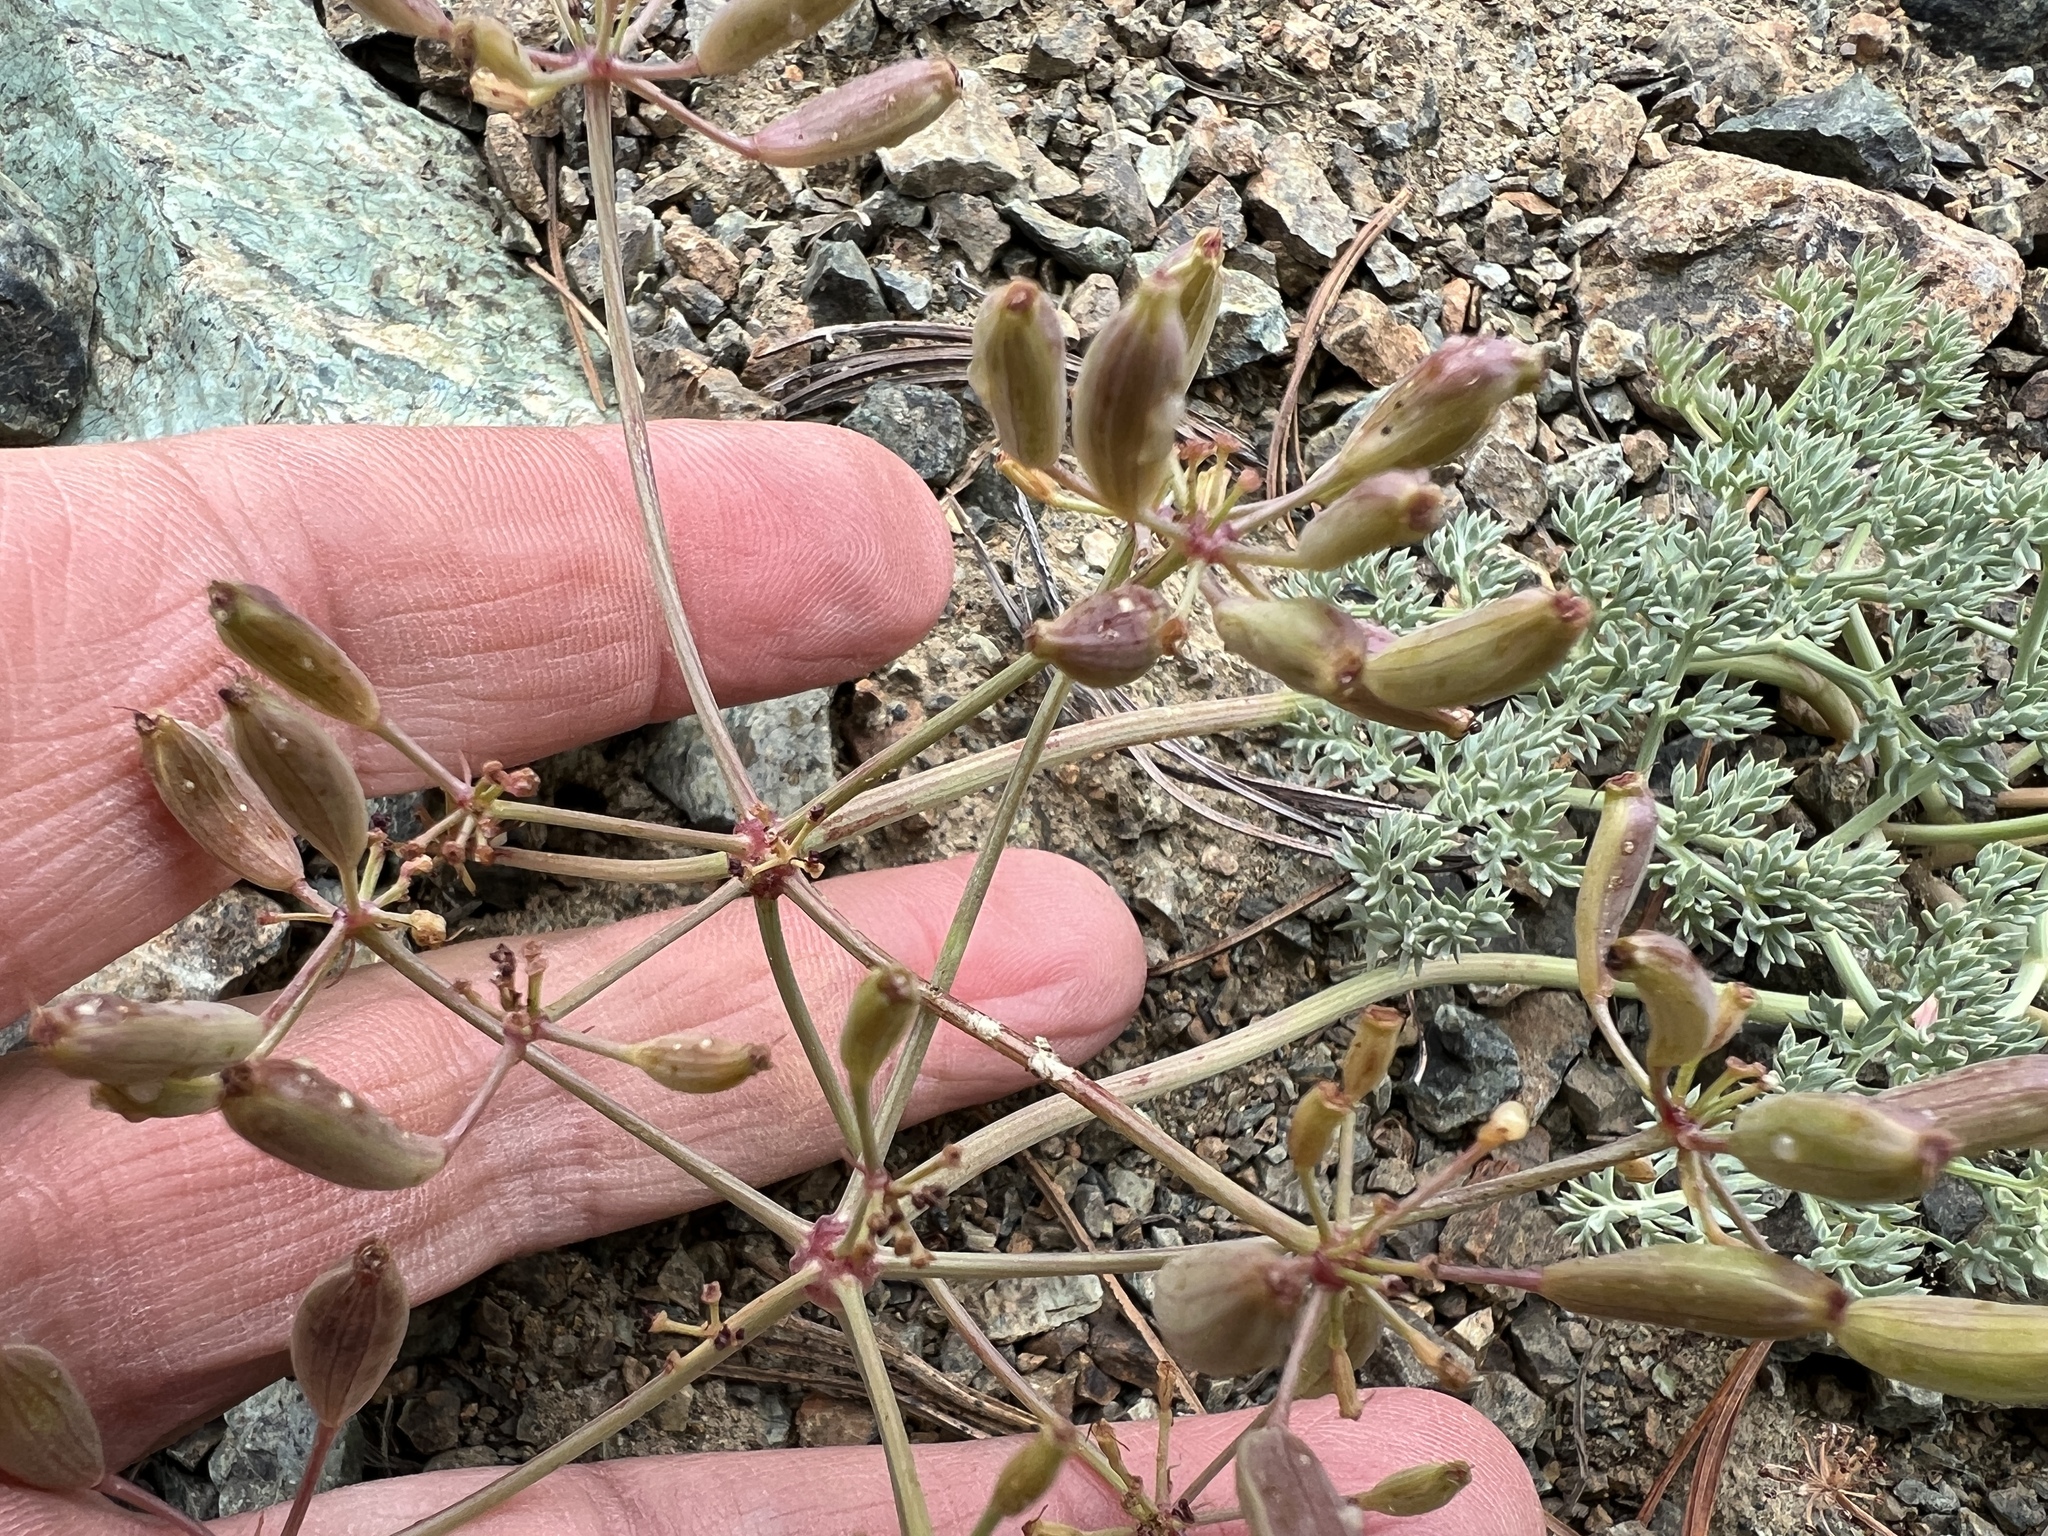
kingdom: Plantae
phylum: Tracheophyta
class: Magnoliopsida
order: Apiales
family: Apiaceae
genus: Lomatium
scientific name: Lomatium cuspidatum
